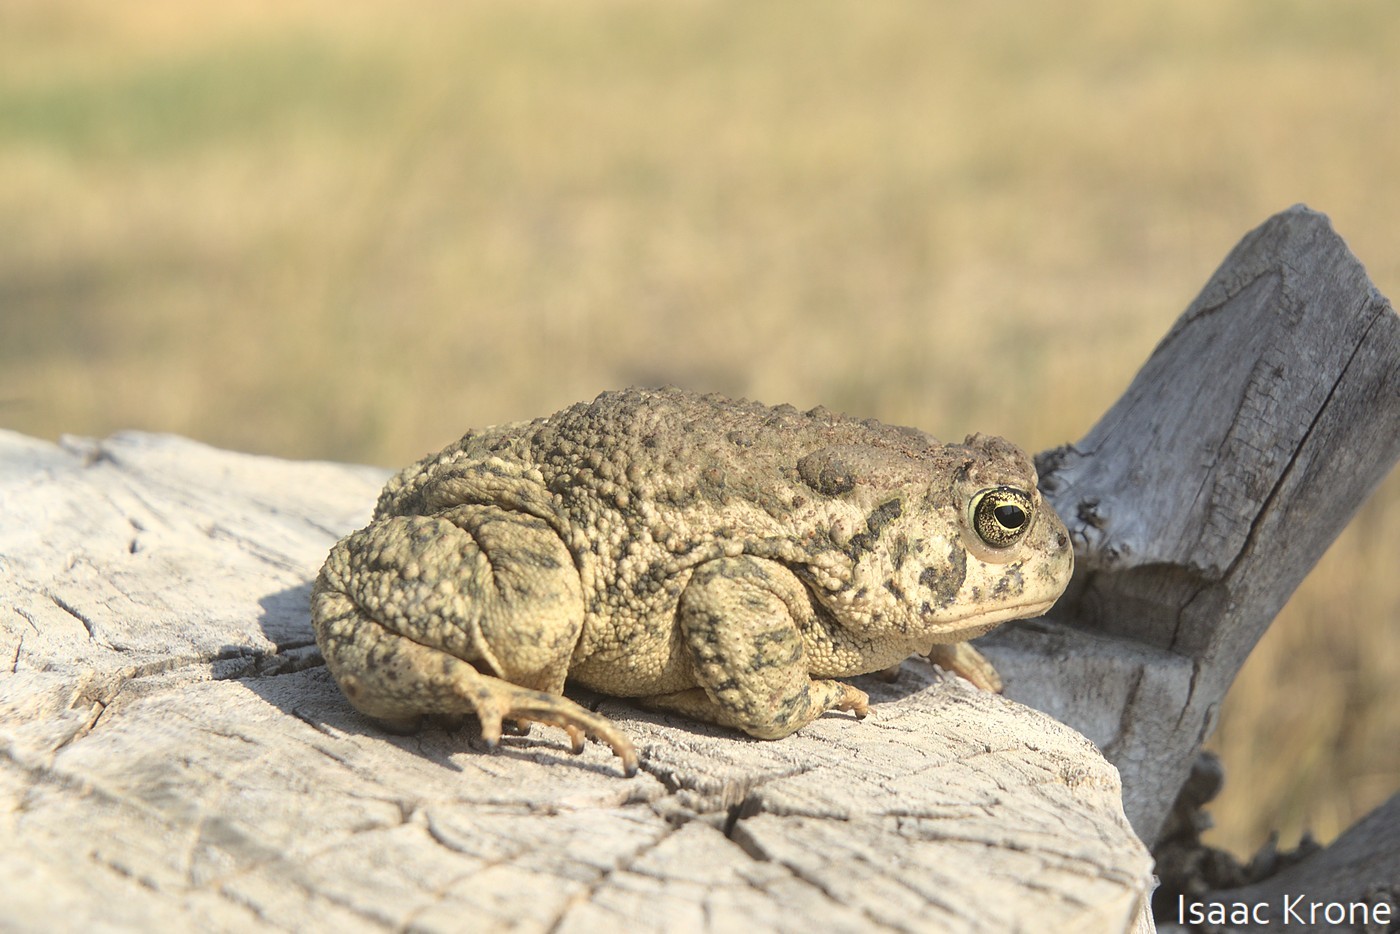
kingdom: Animalia
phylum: Chordata
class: Amphibia
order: Anura
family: Bufonidae
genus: Anaxyrus
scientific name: Anaxyrus woodhousii
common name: Woodhouse's toad
